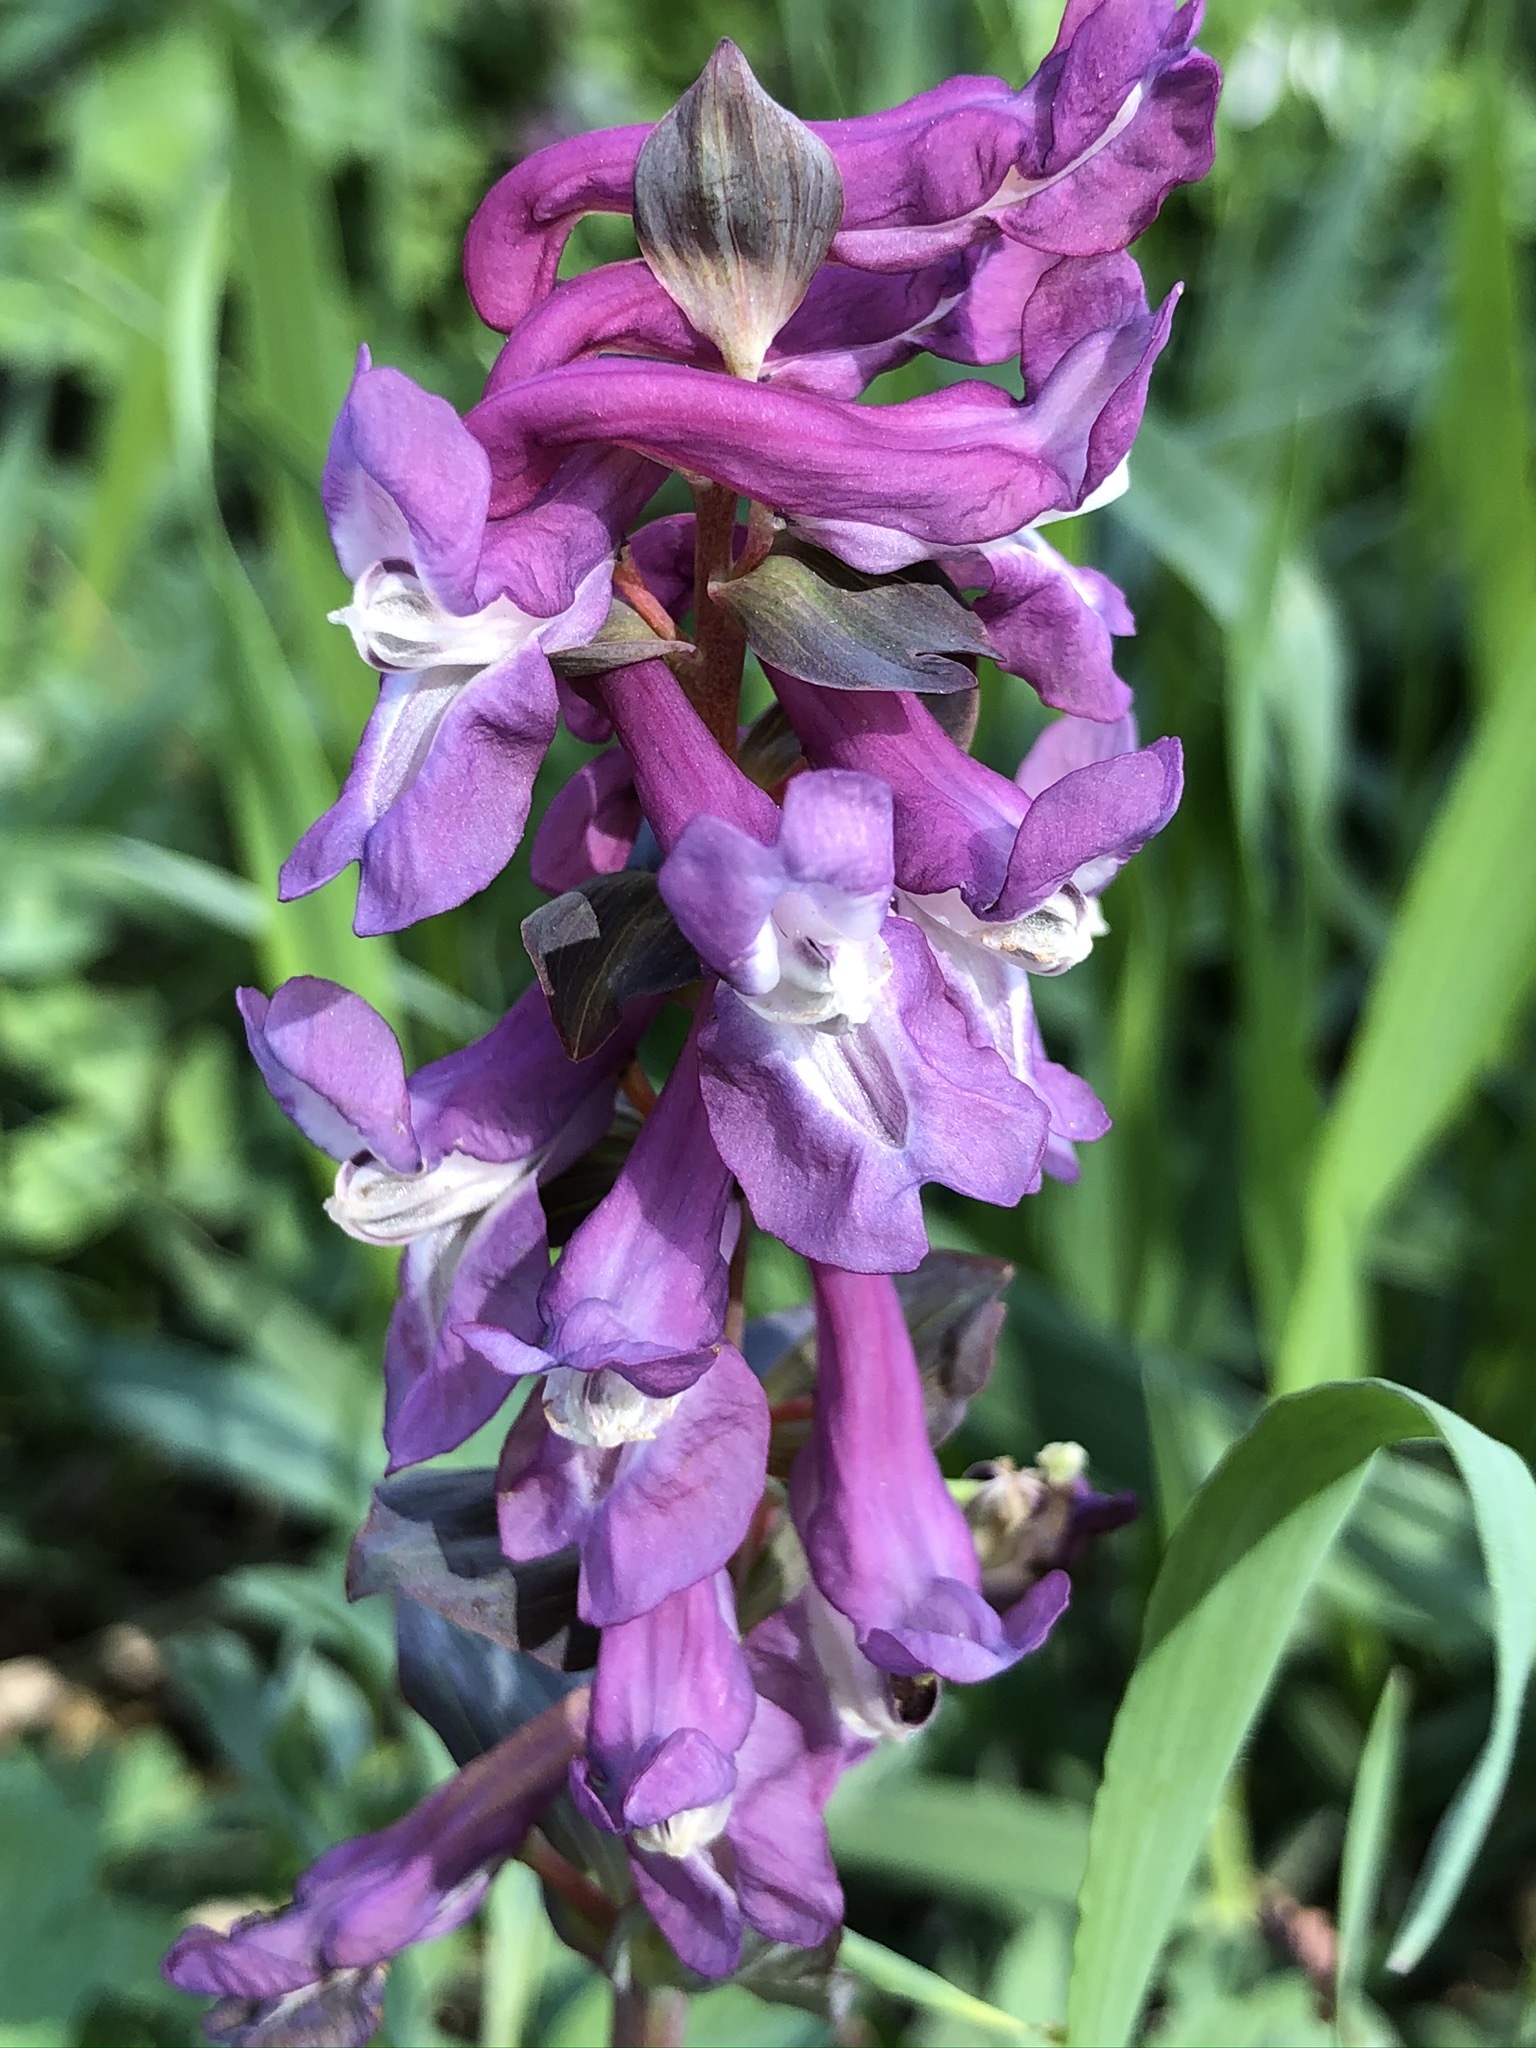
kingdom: Plantae
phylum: Tracheophyta
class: Magnoliopsida
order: Ranunculales
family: Papaveraceae
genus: Corydalis
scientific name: Corydalis cava
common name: Hollowroot
